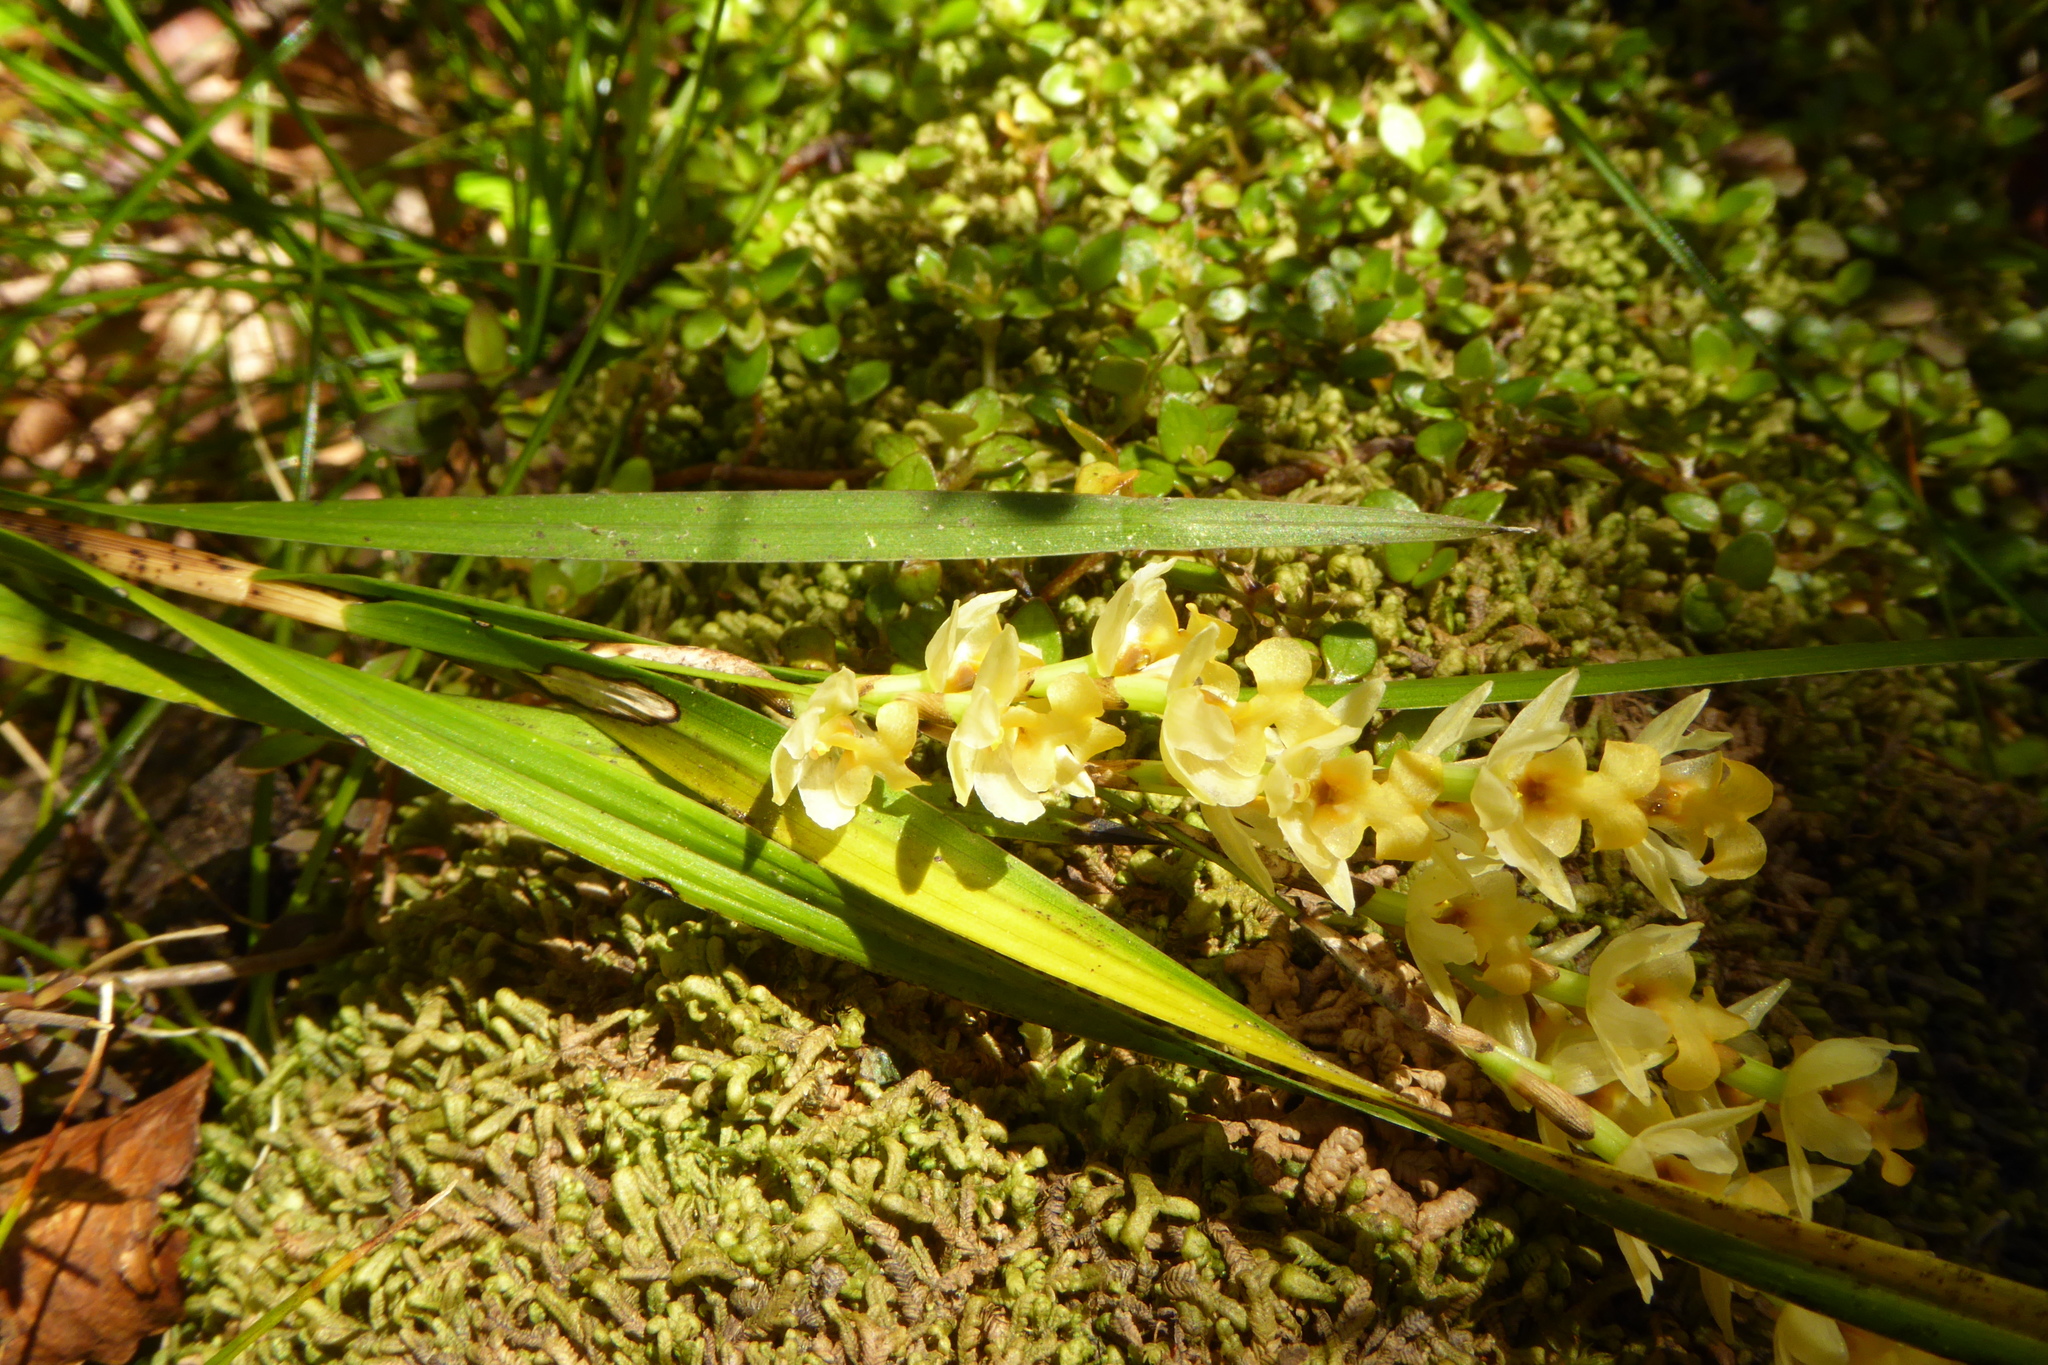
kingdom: Plantae
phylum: Tracheophyta
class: Liliopsida
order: Asparagales
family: Orchidaceae
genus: Earina
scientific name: Earina mucronata
